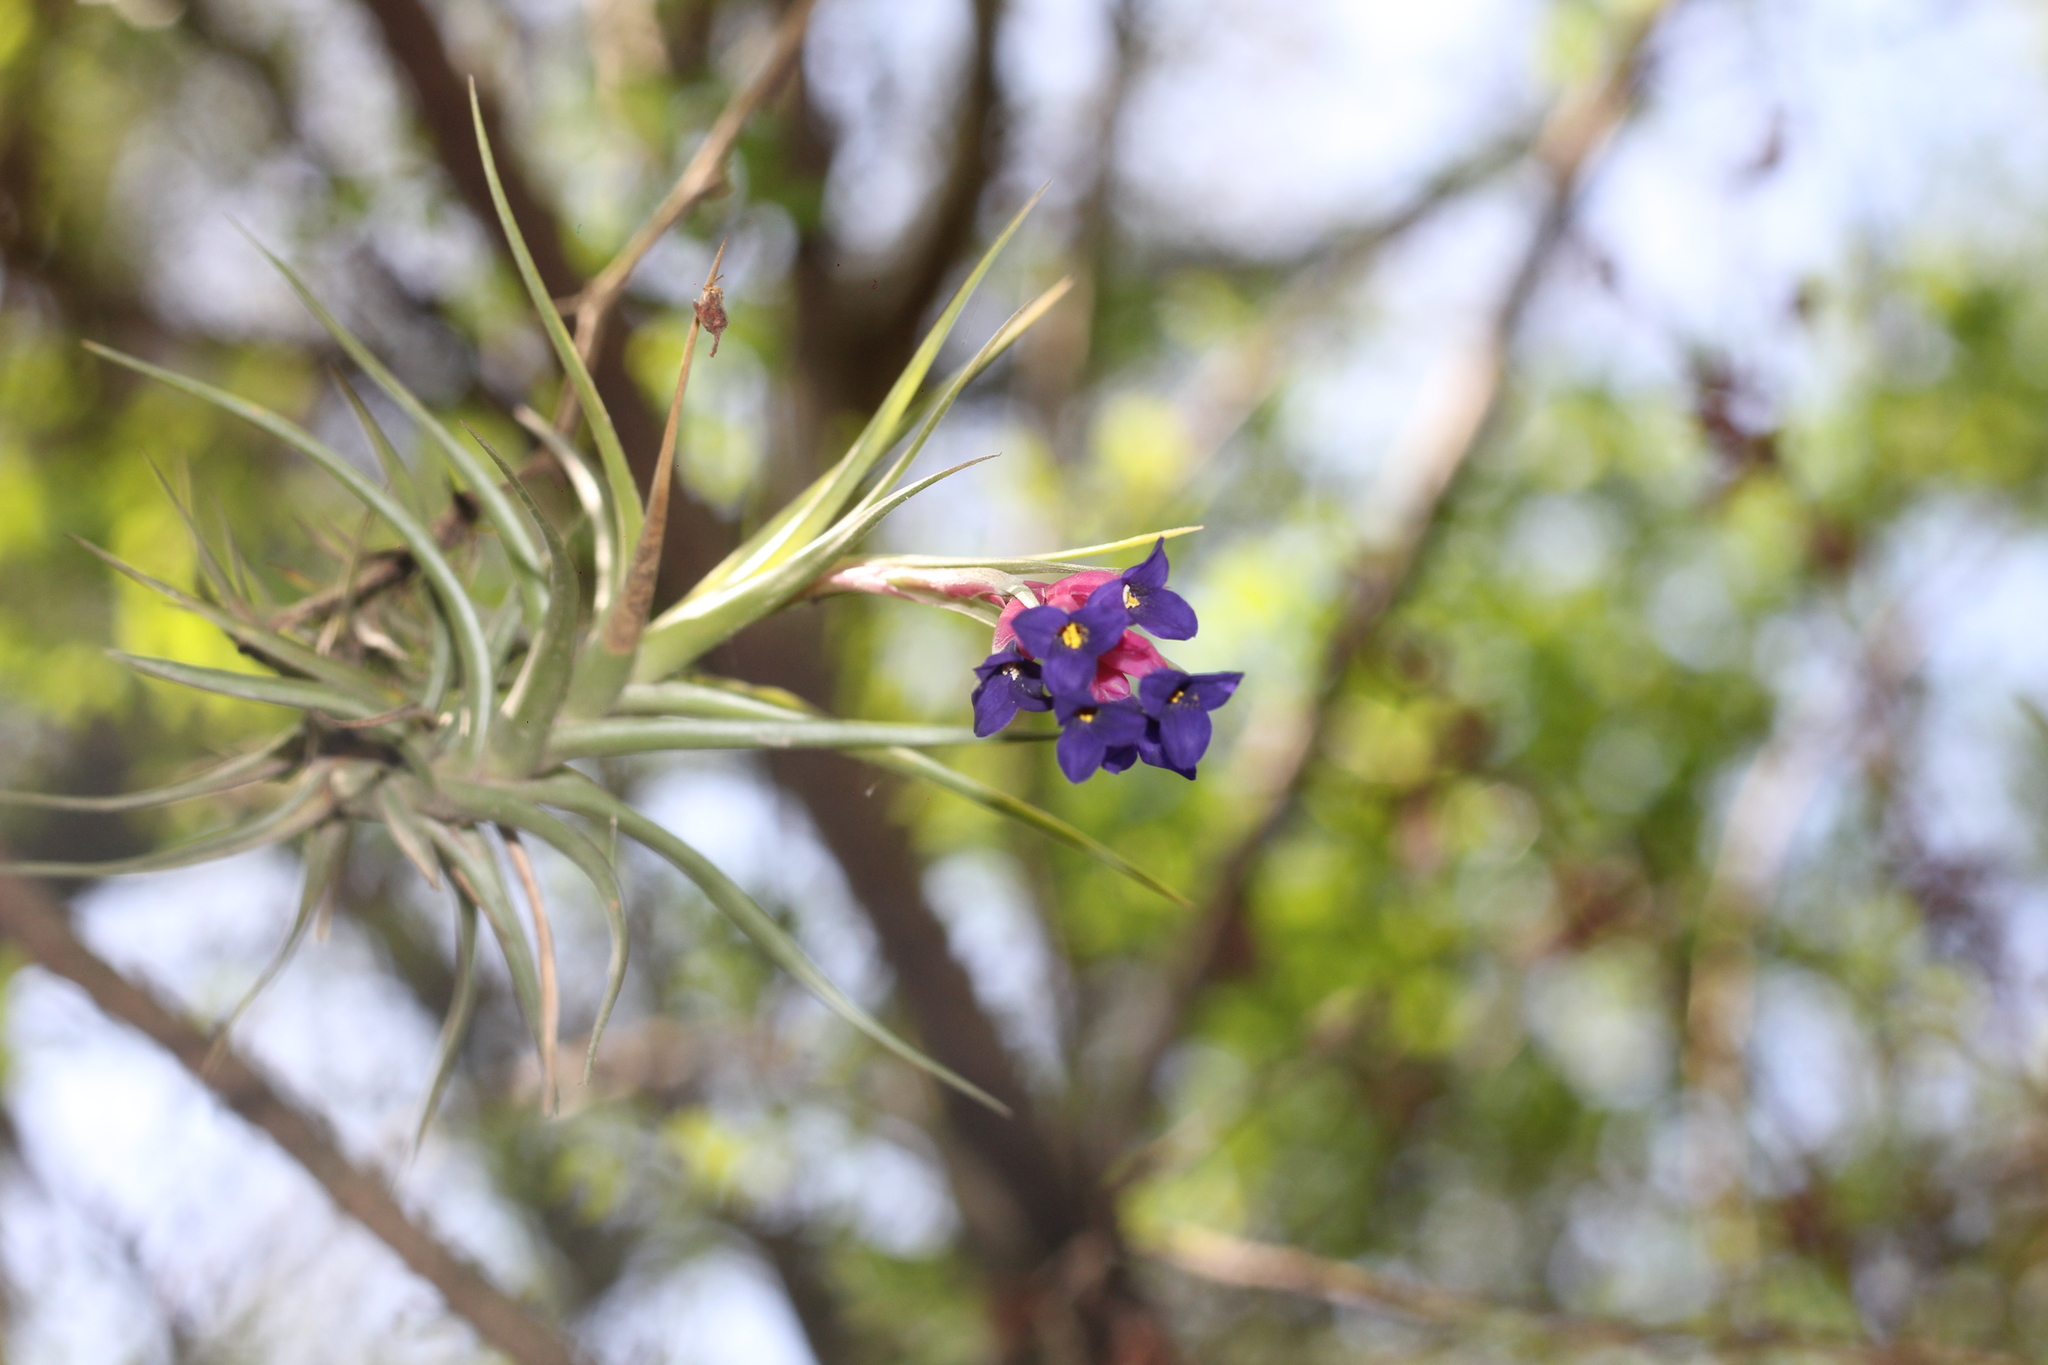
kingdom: Plantae
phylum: Tracheophyta
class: Liliopsida
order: Poales
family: Bromeliaceae
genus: Tillandsia
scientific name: Tillandsia aeranthos
